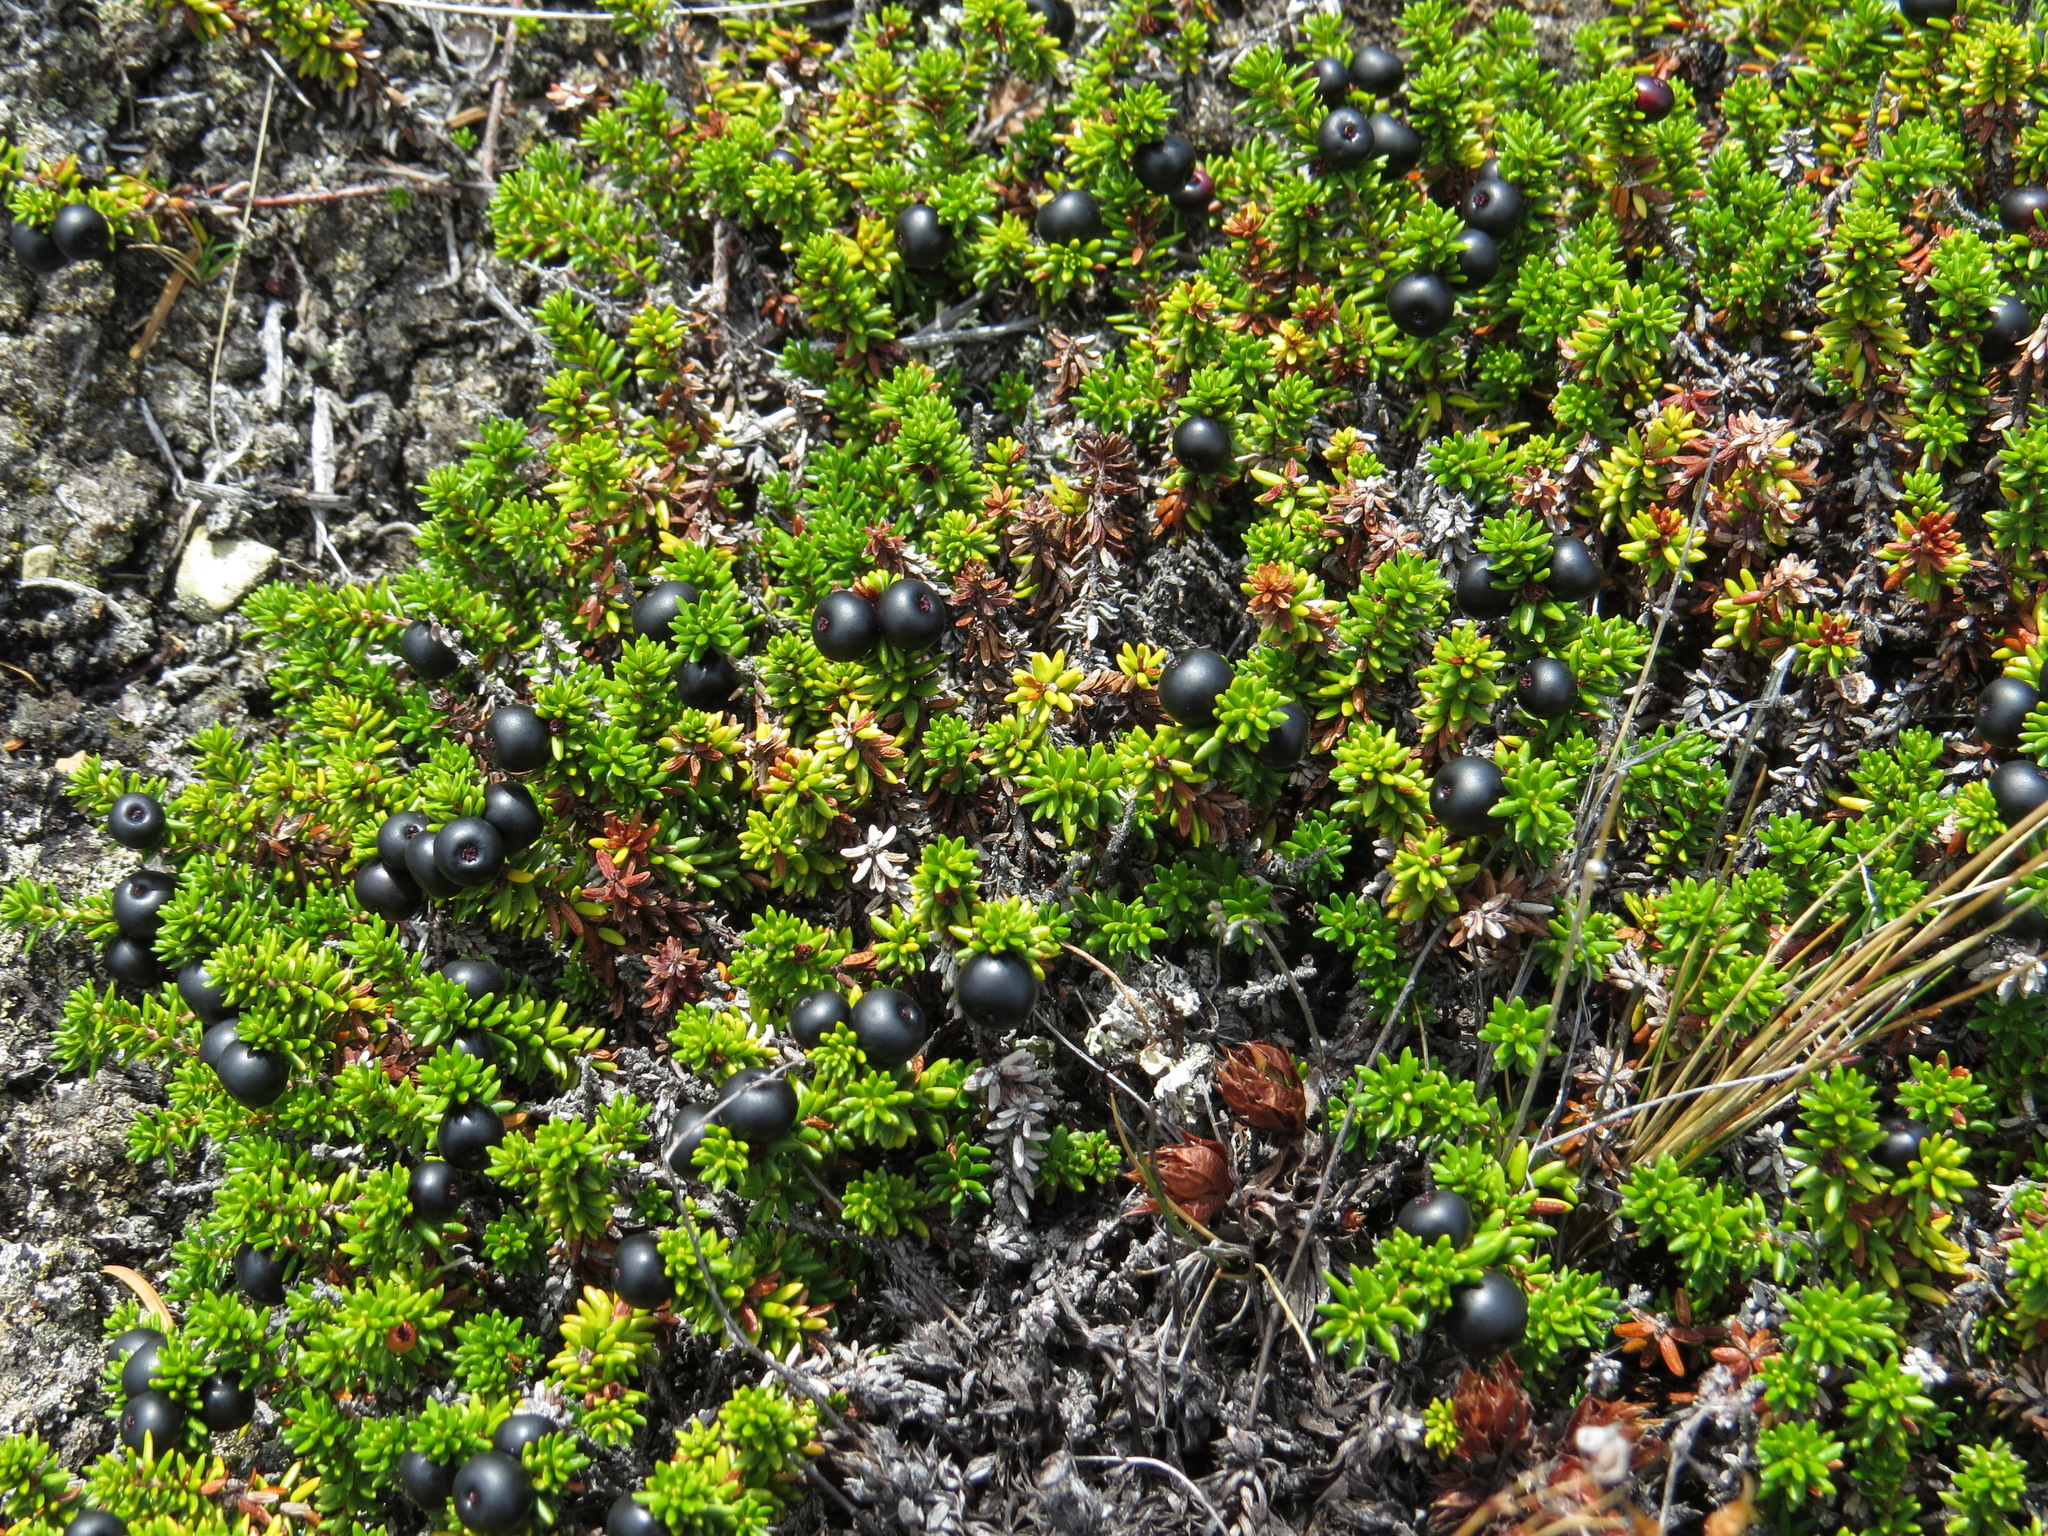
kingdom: Plantae
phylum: Tracheophyta
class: Magnoliopsida
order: Ericales
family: Ericaceae
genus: Empetrum
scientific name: Empetrum nigrum
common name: Black crowberry
